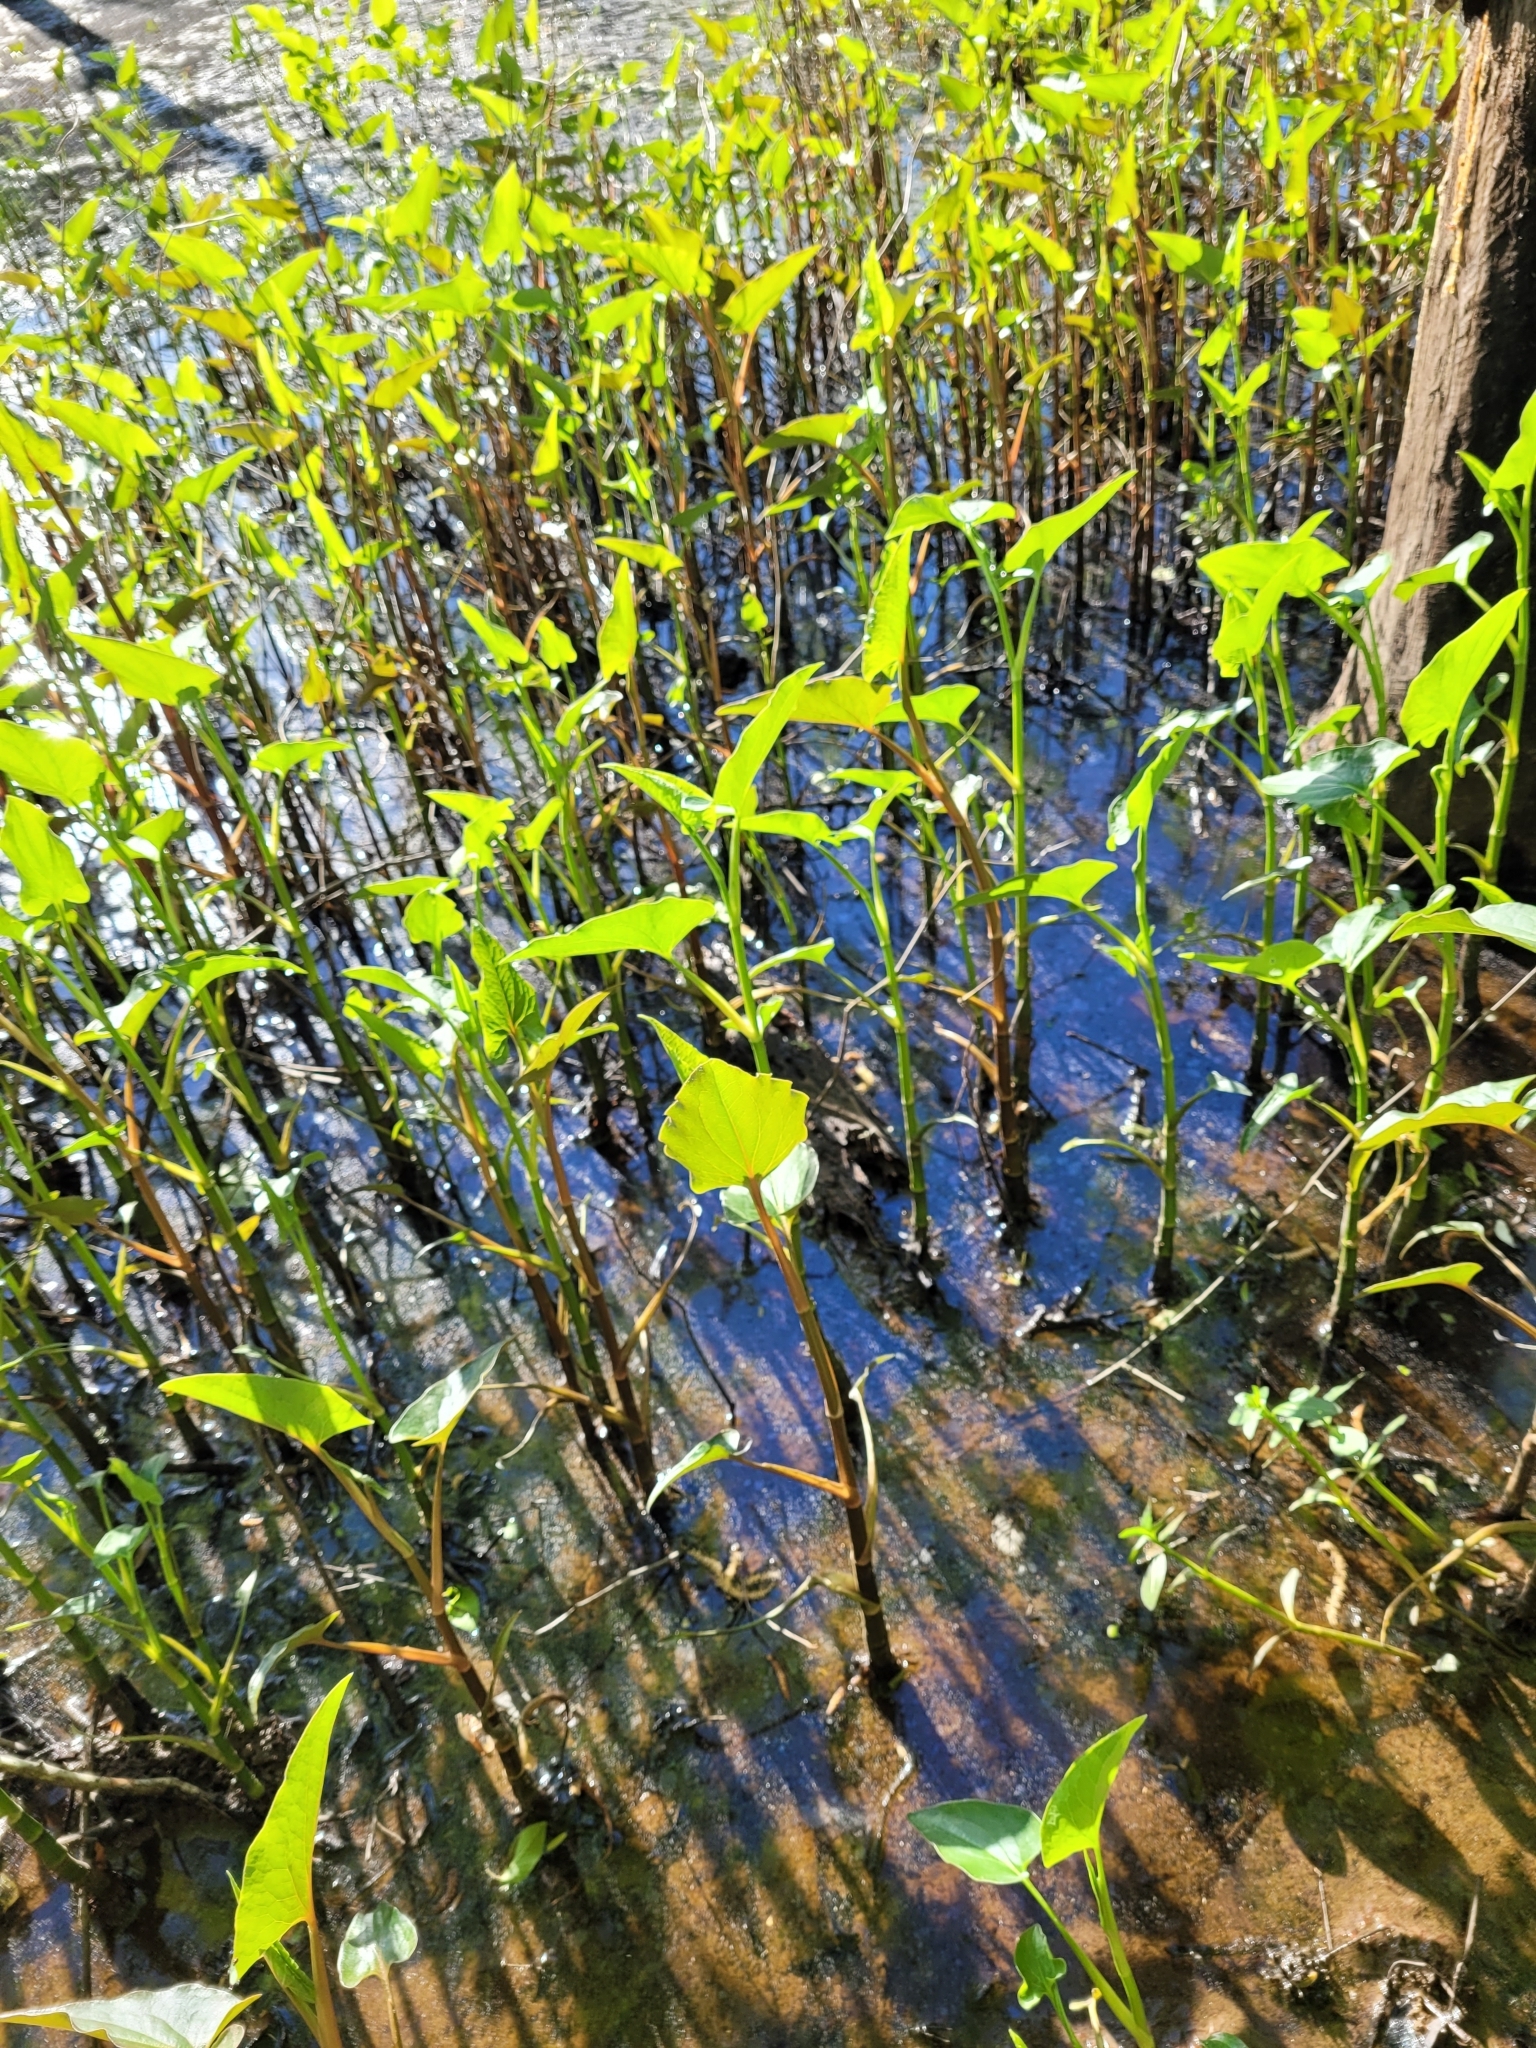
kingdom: Plantae
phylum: Tracheophyta
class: Magnoliopsida
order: Piperales
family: Saururaceae
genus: Saururus
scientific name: Saururus cernuus
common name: Lizard's-tail
